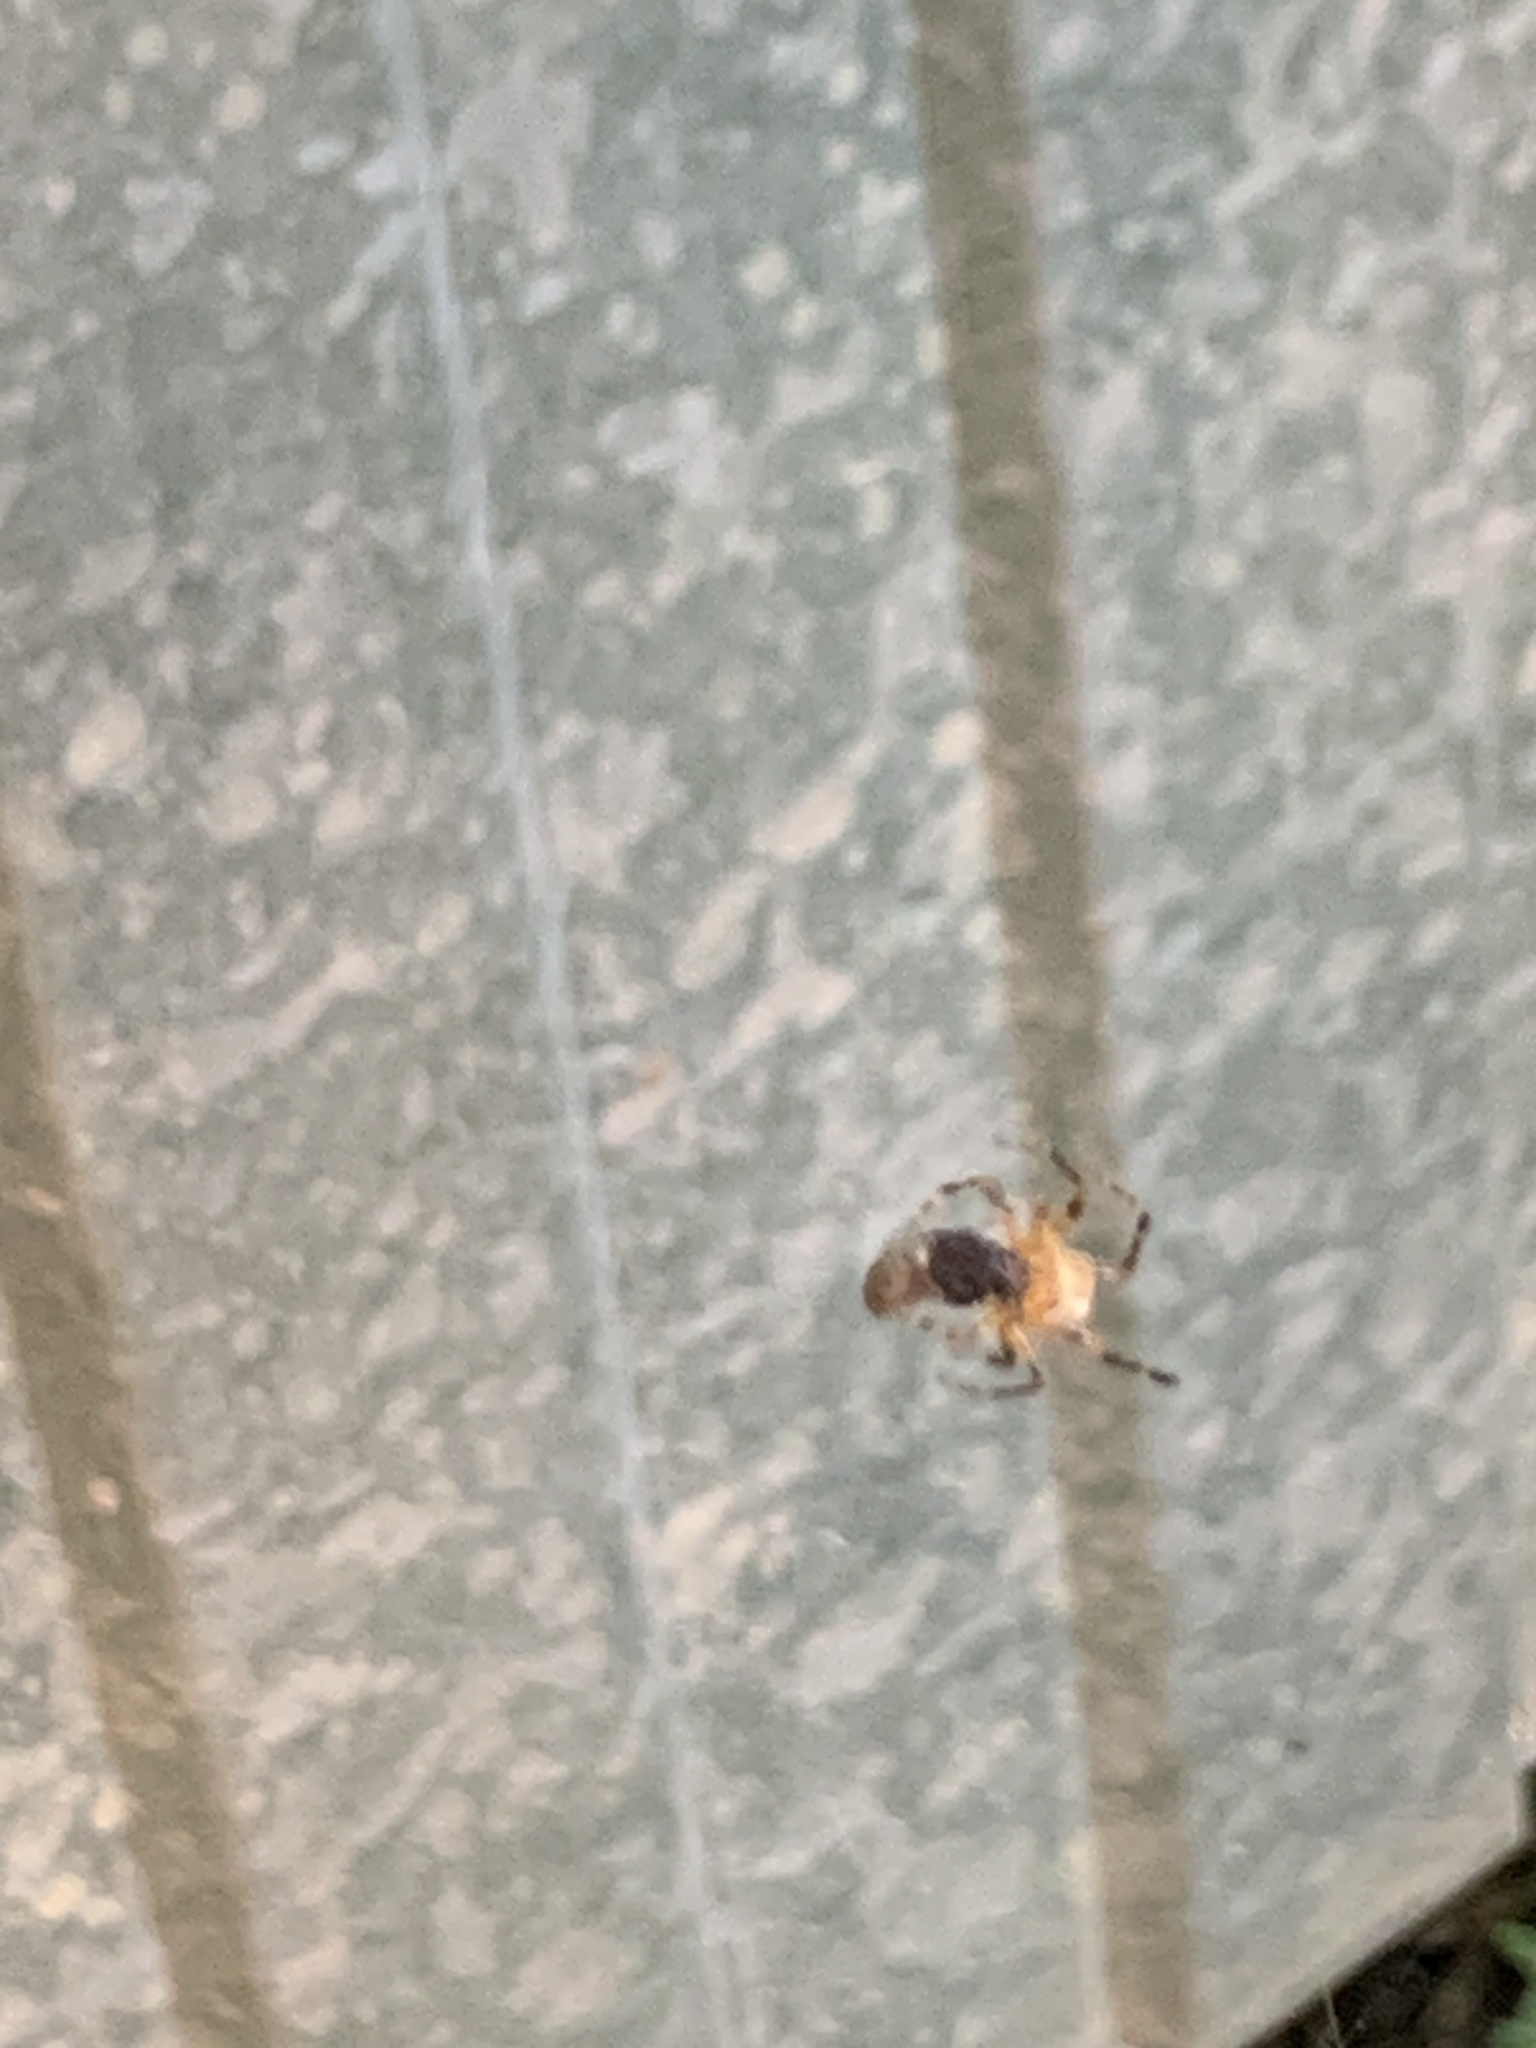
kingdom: Animalia
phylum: Arthropoda
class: Arachnida
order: Araneae
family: Araneidae
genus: Araneus
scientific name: Araneus diadematus
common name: Cross orbweaver
